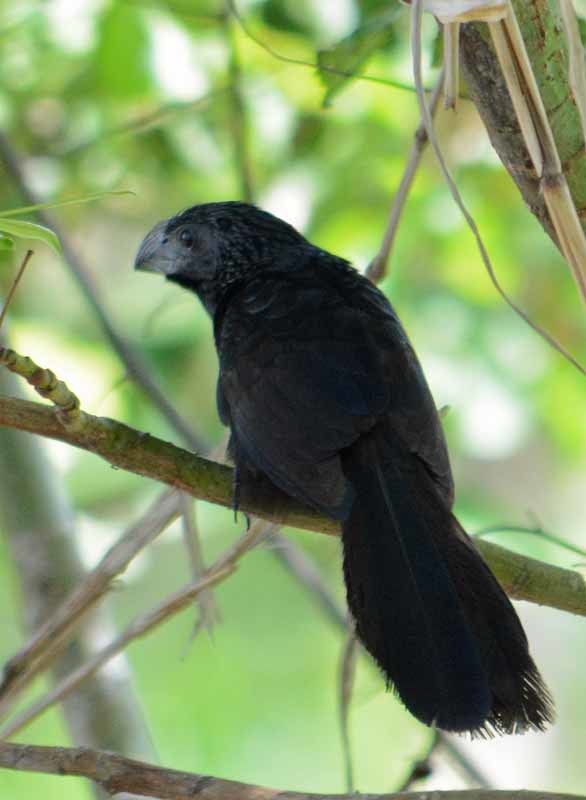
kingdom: Animalia
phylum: Chordata
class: Aves
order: Cuculiformes
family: Cuculidae
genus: Crotophaga
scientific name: Crotophaga sulcirostris
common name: Groove-billed ani
